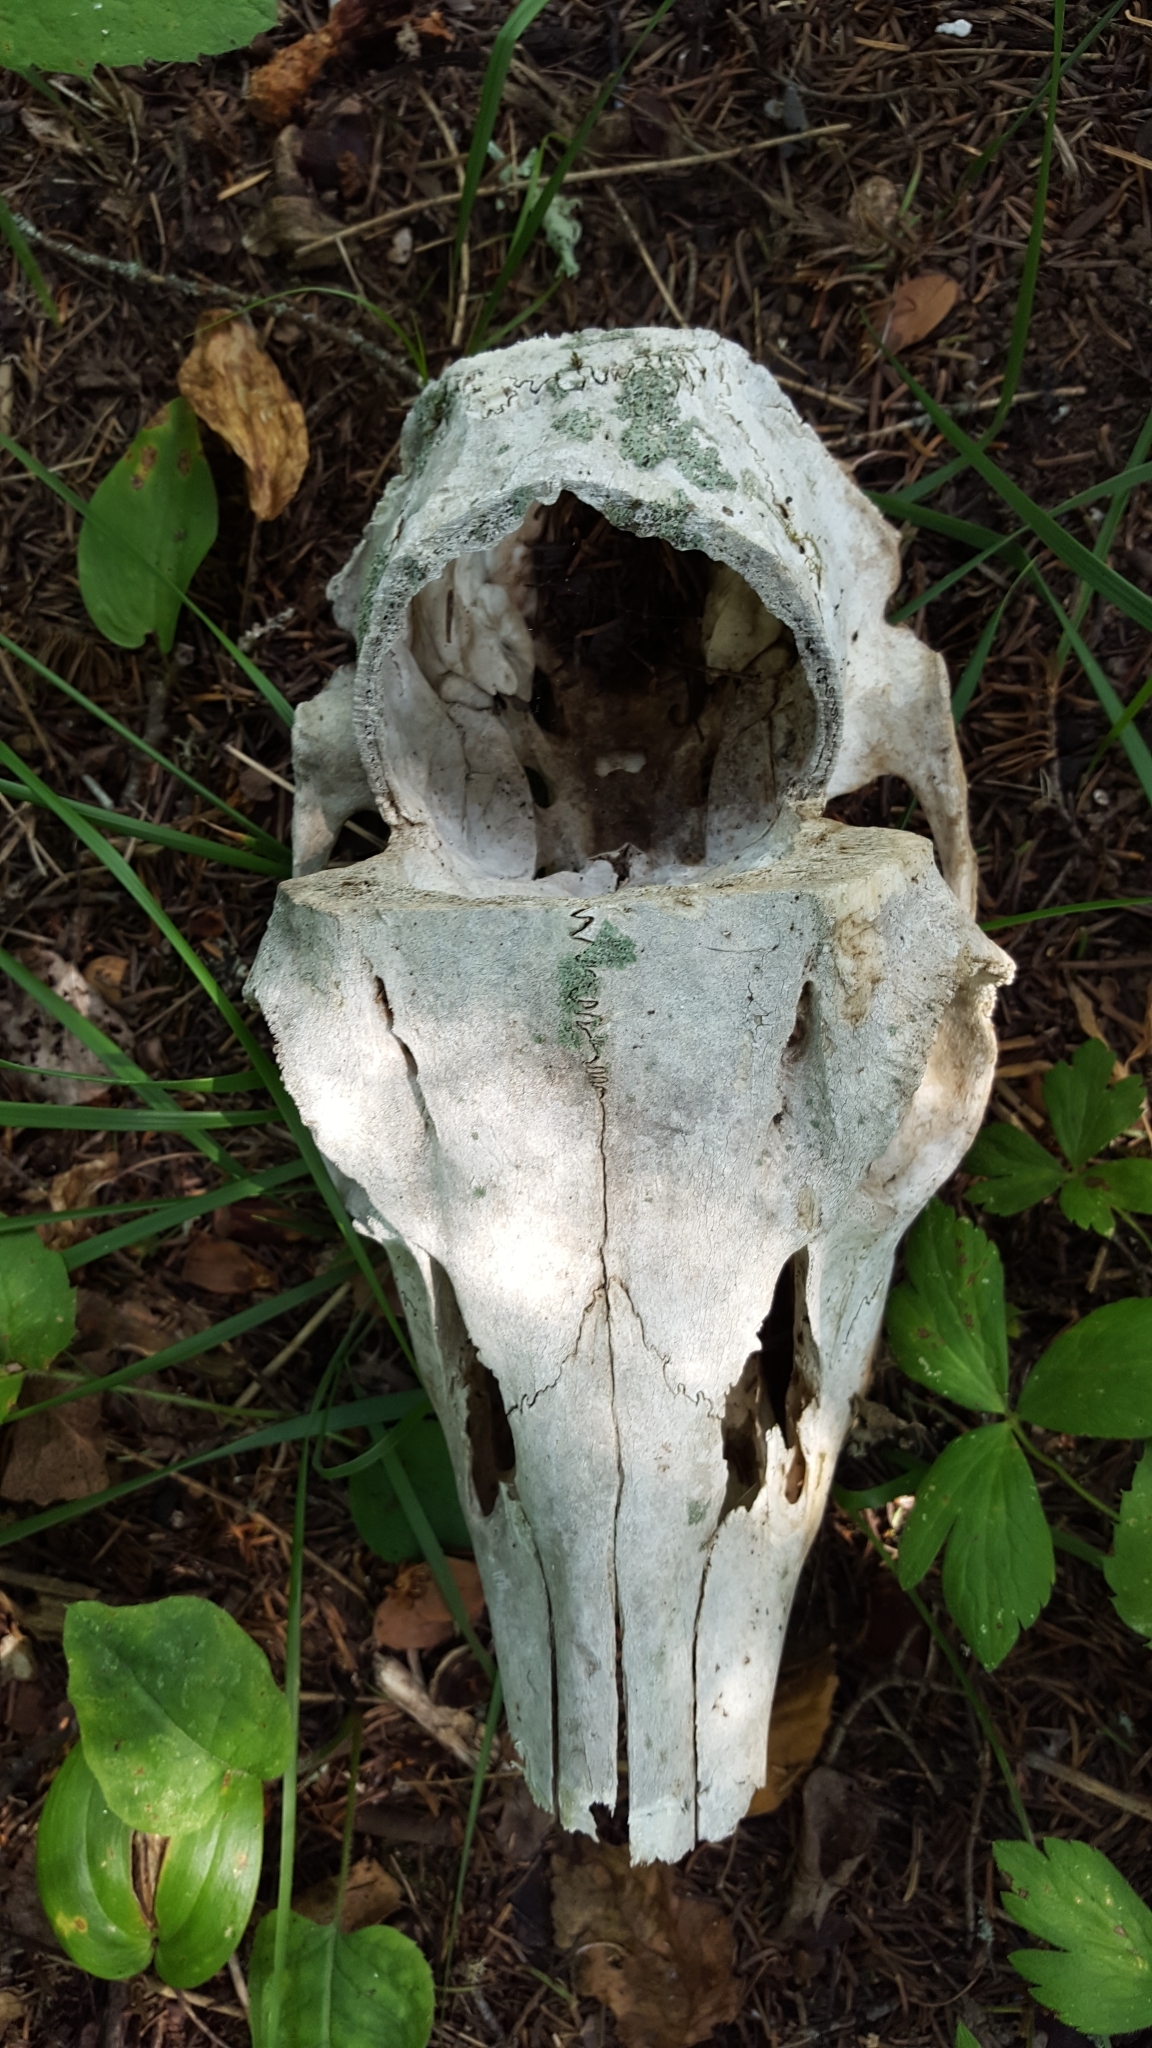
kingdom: Animalia
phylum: Chordata
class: Mammalia
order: Artiodactyla
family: Cervidae
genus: Odocoileus
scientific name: Odocoileus virginianus
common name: White-tailed deer
